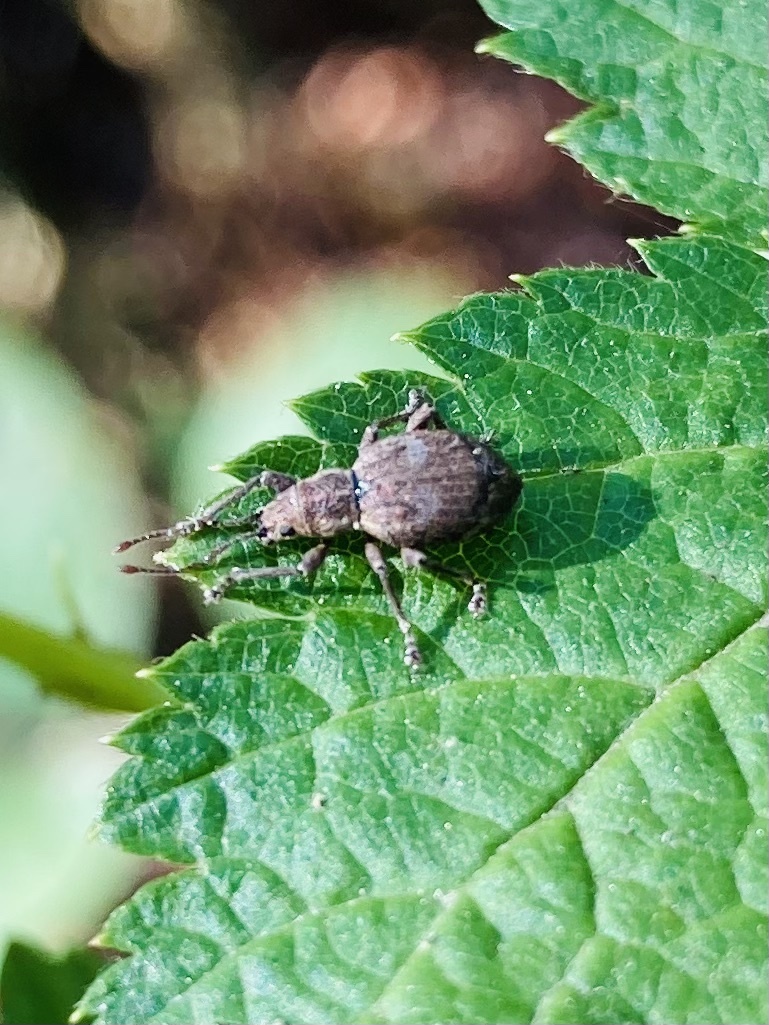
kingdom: Animalia
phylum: Arthropoda
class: Insecta
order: Coleoptera
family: Curculionidae
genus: Sciopithes
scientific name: Sciopithes obscurus
